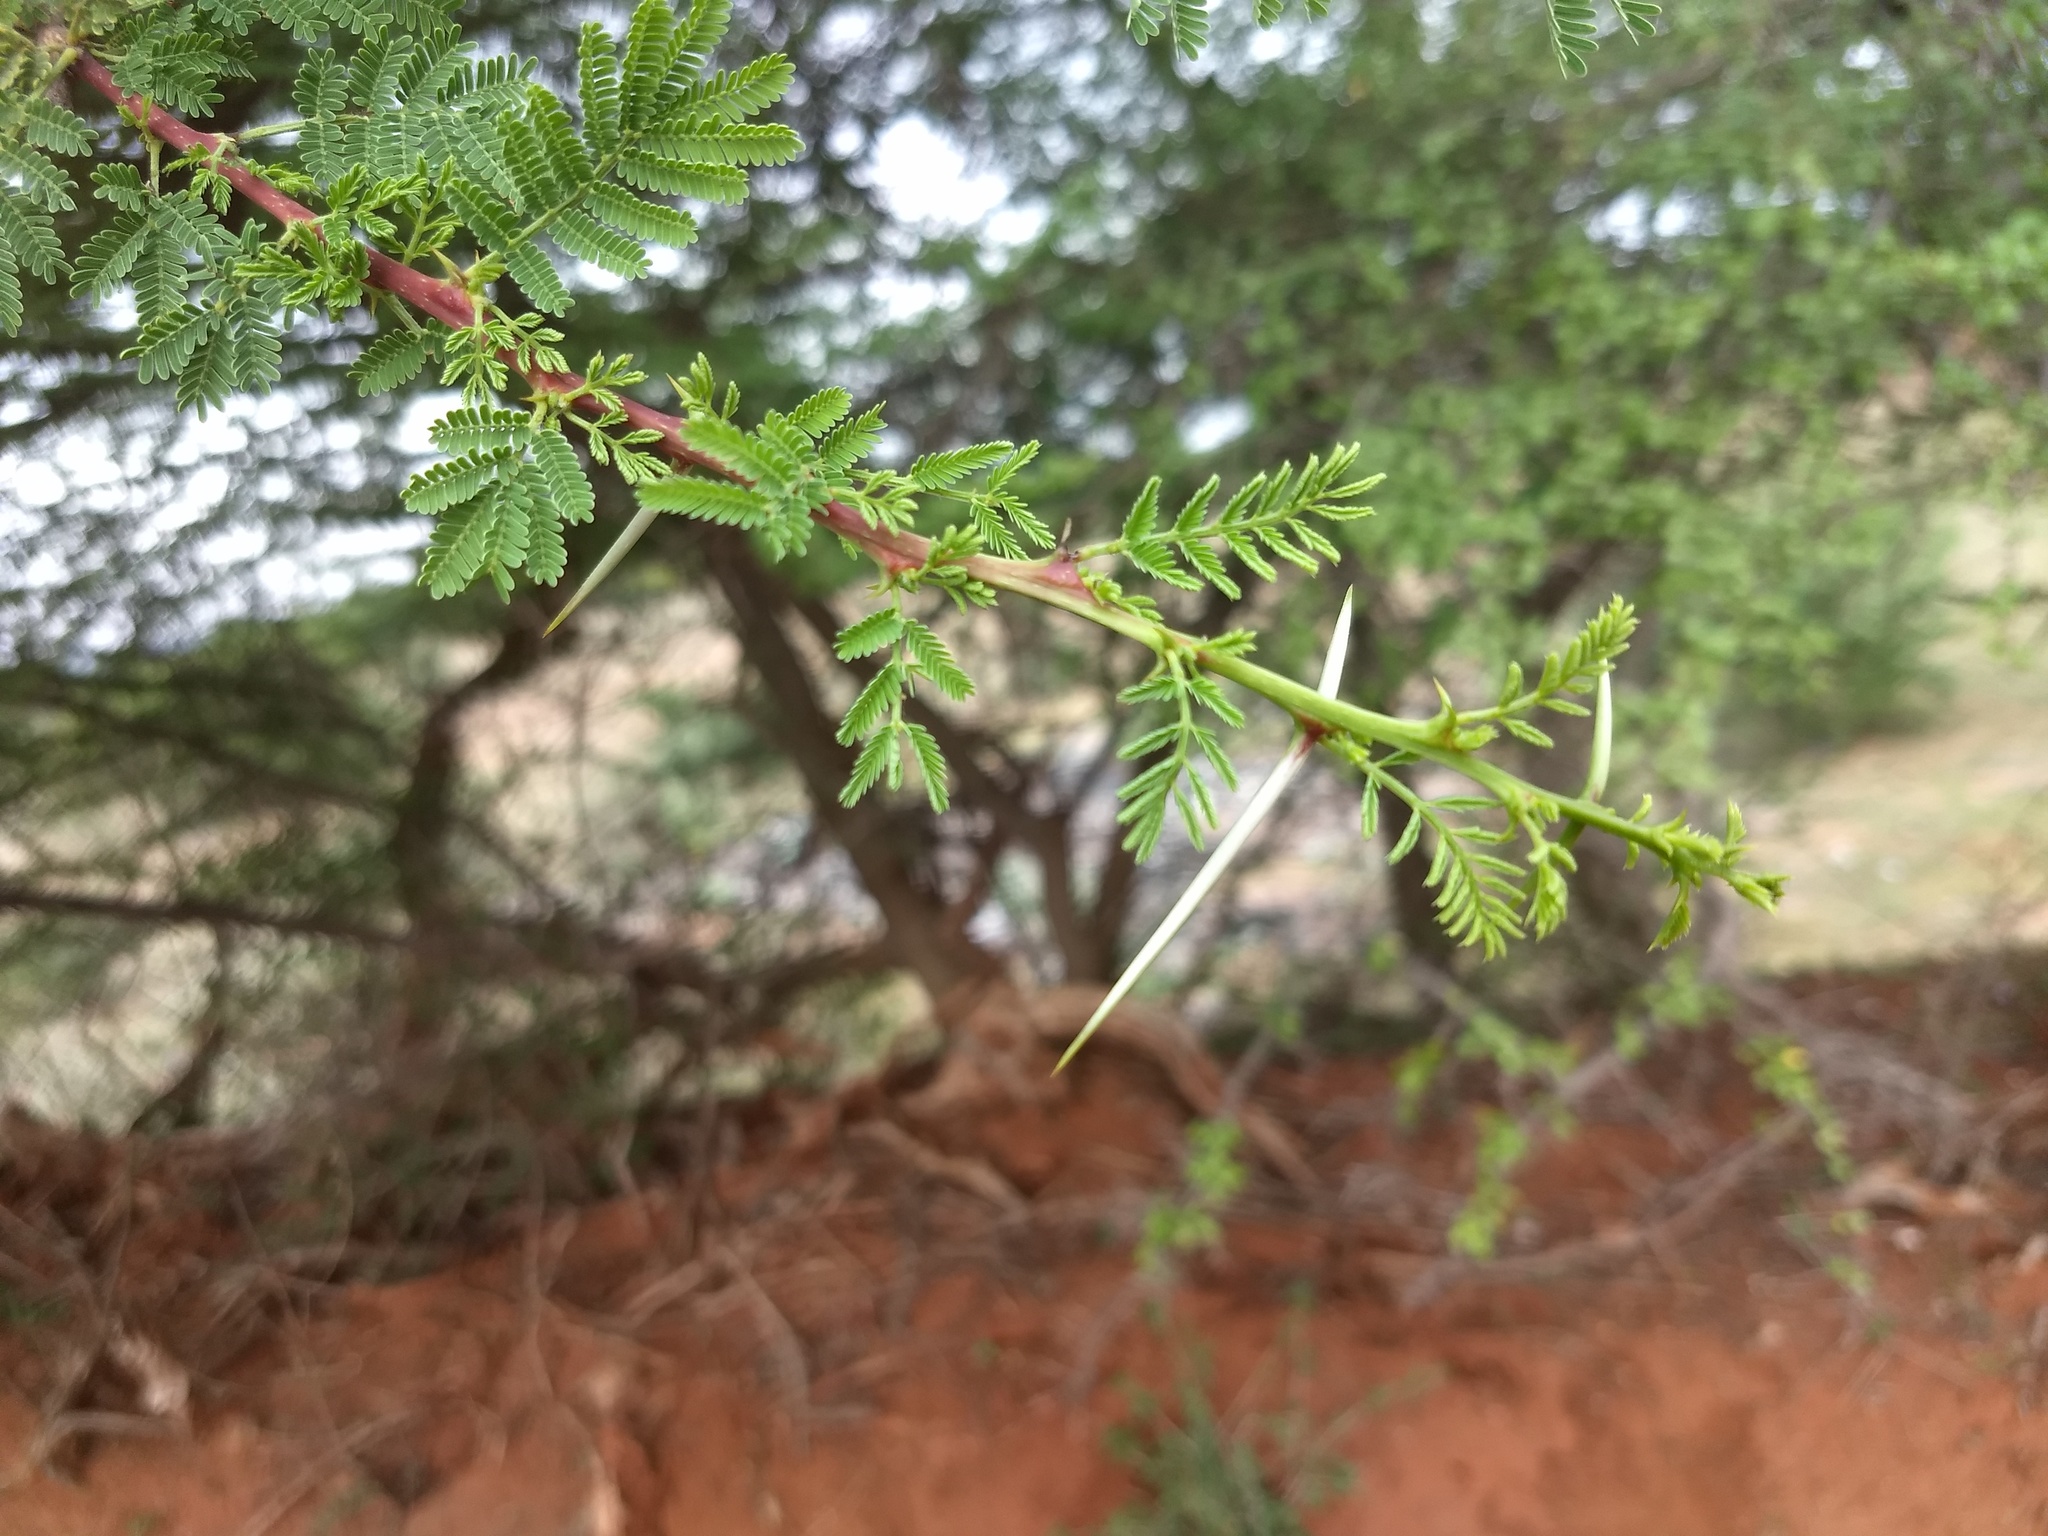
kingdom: Plantae
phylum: Tracheophyta
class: Magnoliopsida
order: Fabales
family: Fabaceae
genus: Vachellia
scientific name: Vachellia planifrons
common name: Umbrella-thorn
